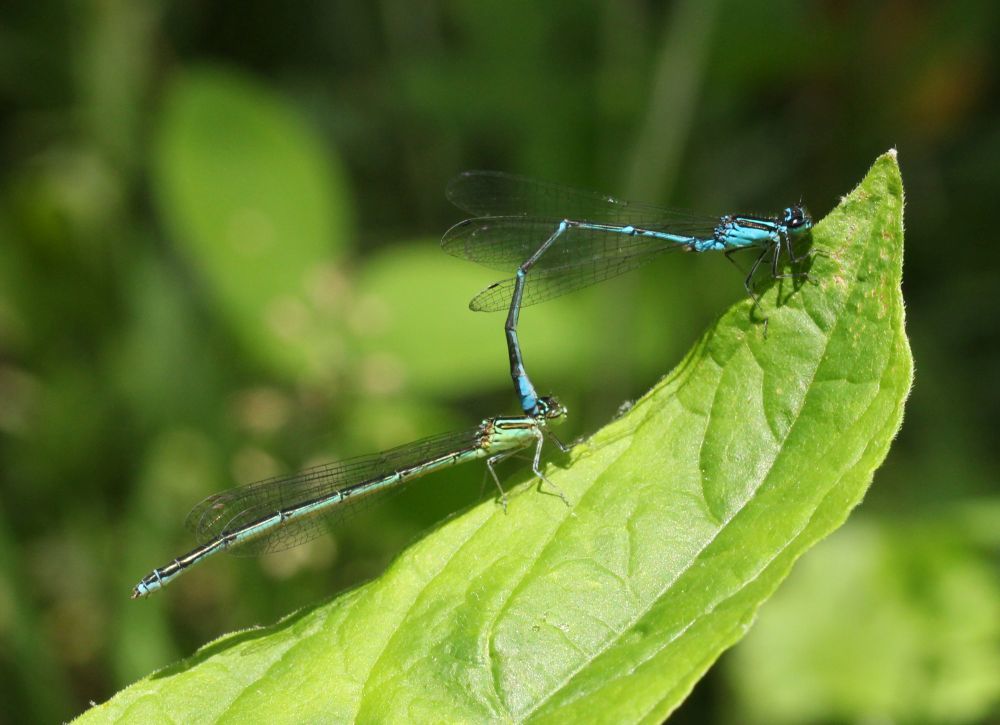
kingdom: Animalia
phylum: Arthropoda
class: Insecta
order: Odonata
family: Coenagrionidae
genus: Enallagma
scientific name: Enallagma exsulans
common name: Stream bluet
